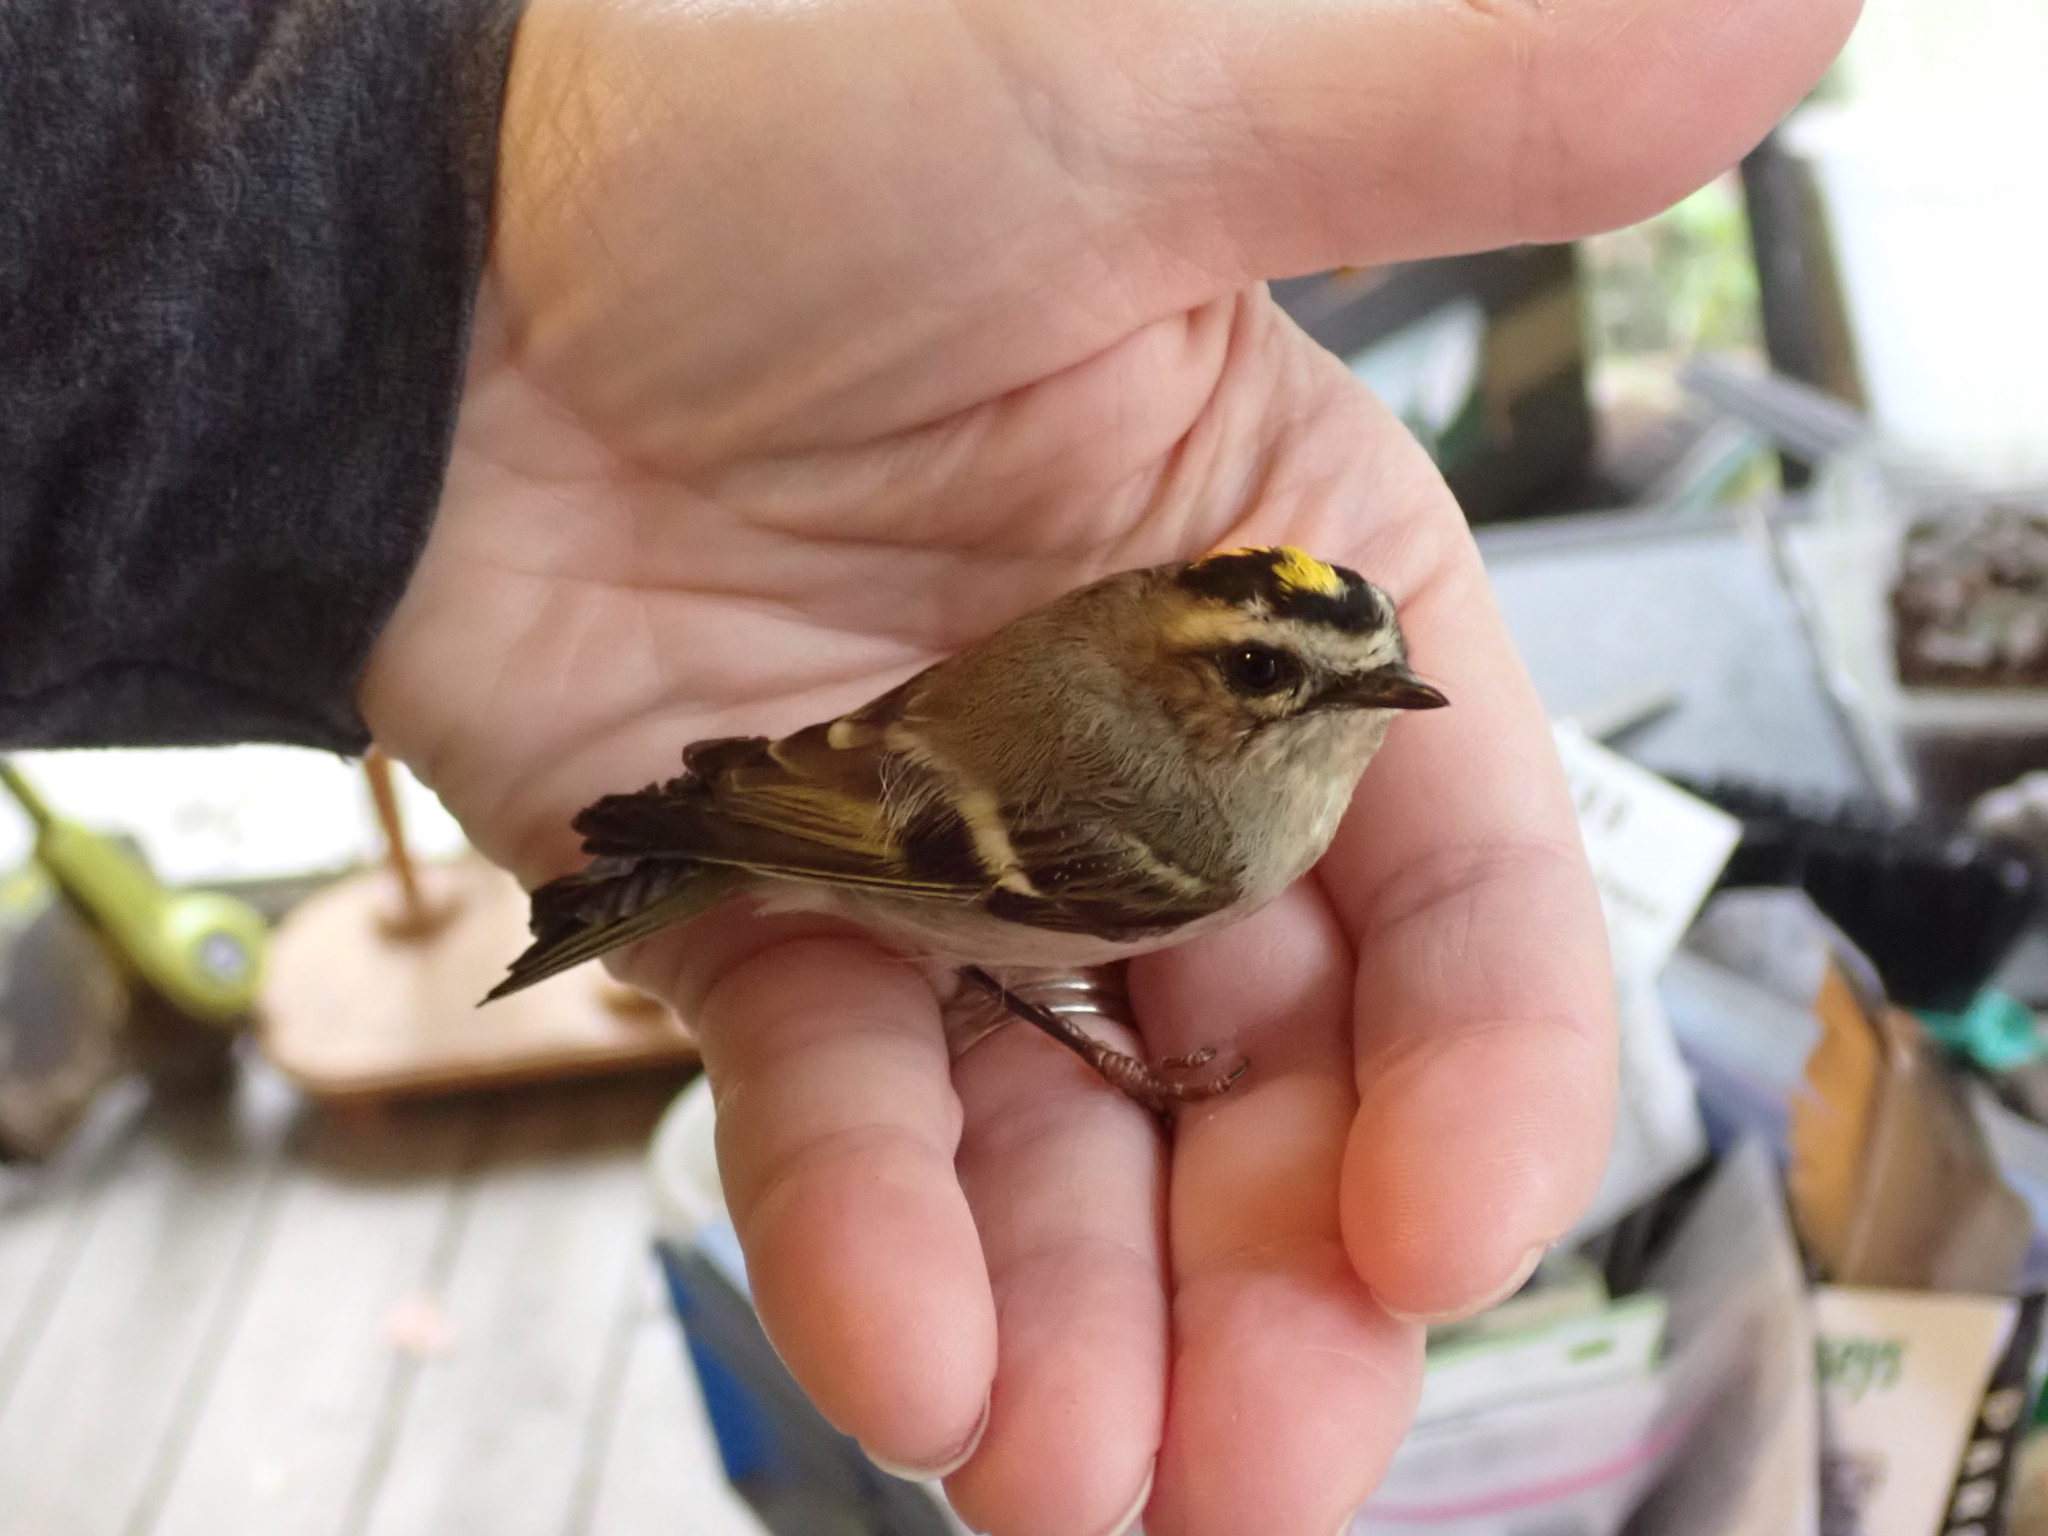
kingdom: Animalia
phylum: Chordata
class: Aves
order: Passeriformes
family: Regulidae
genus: Regulus
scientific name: Regulus satrapa
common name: Golden-crowned kinglet
